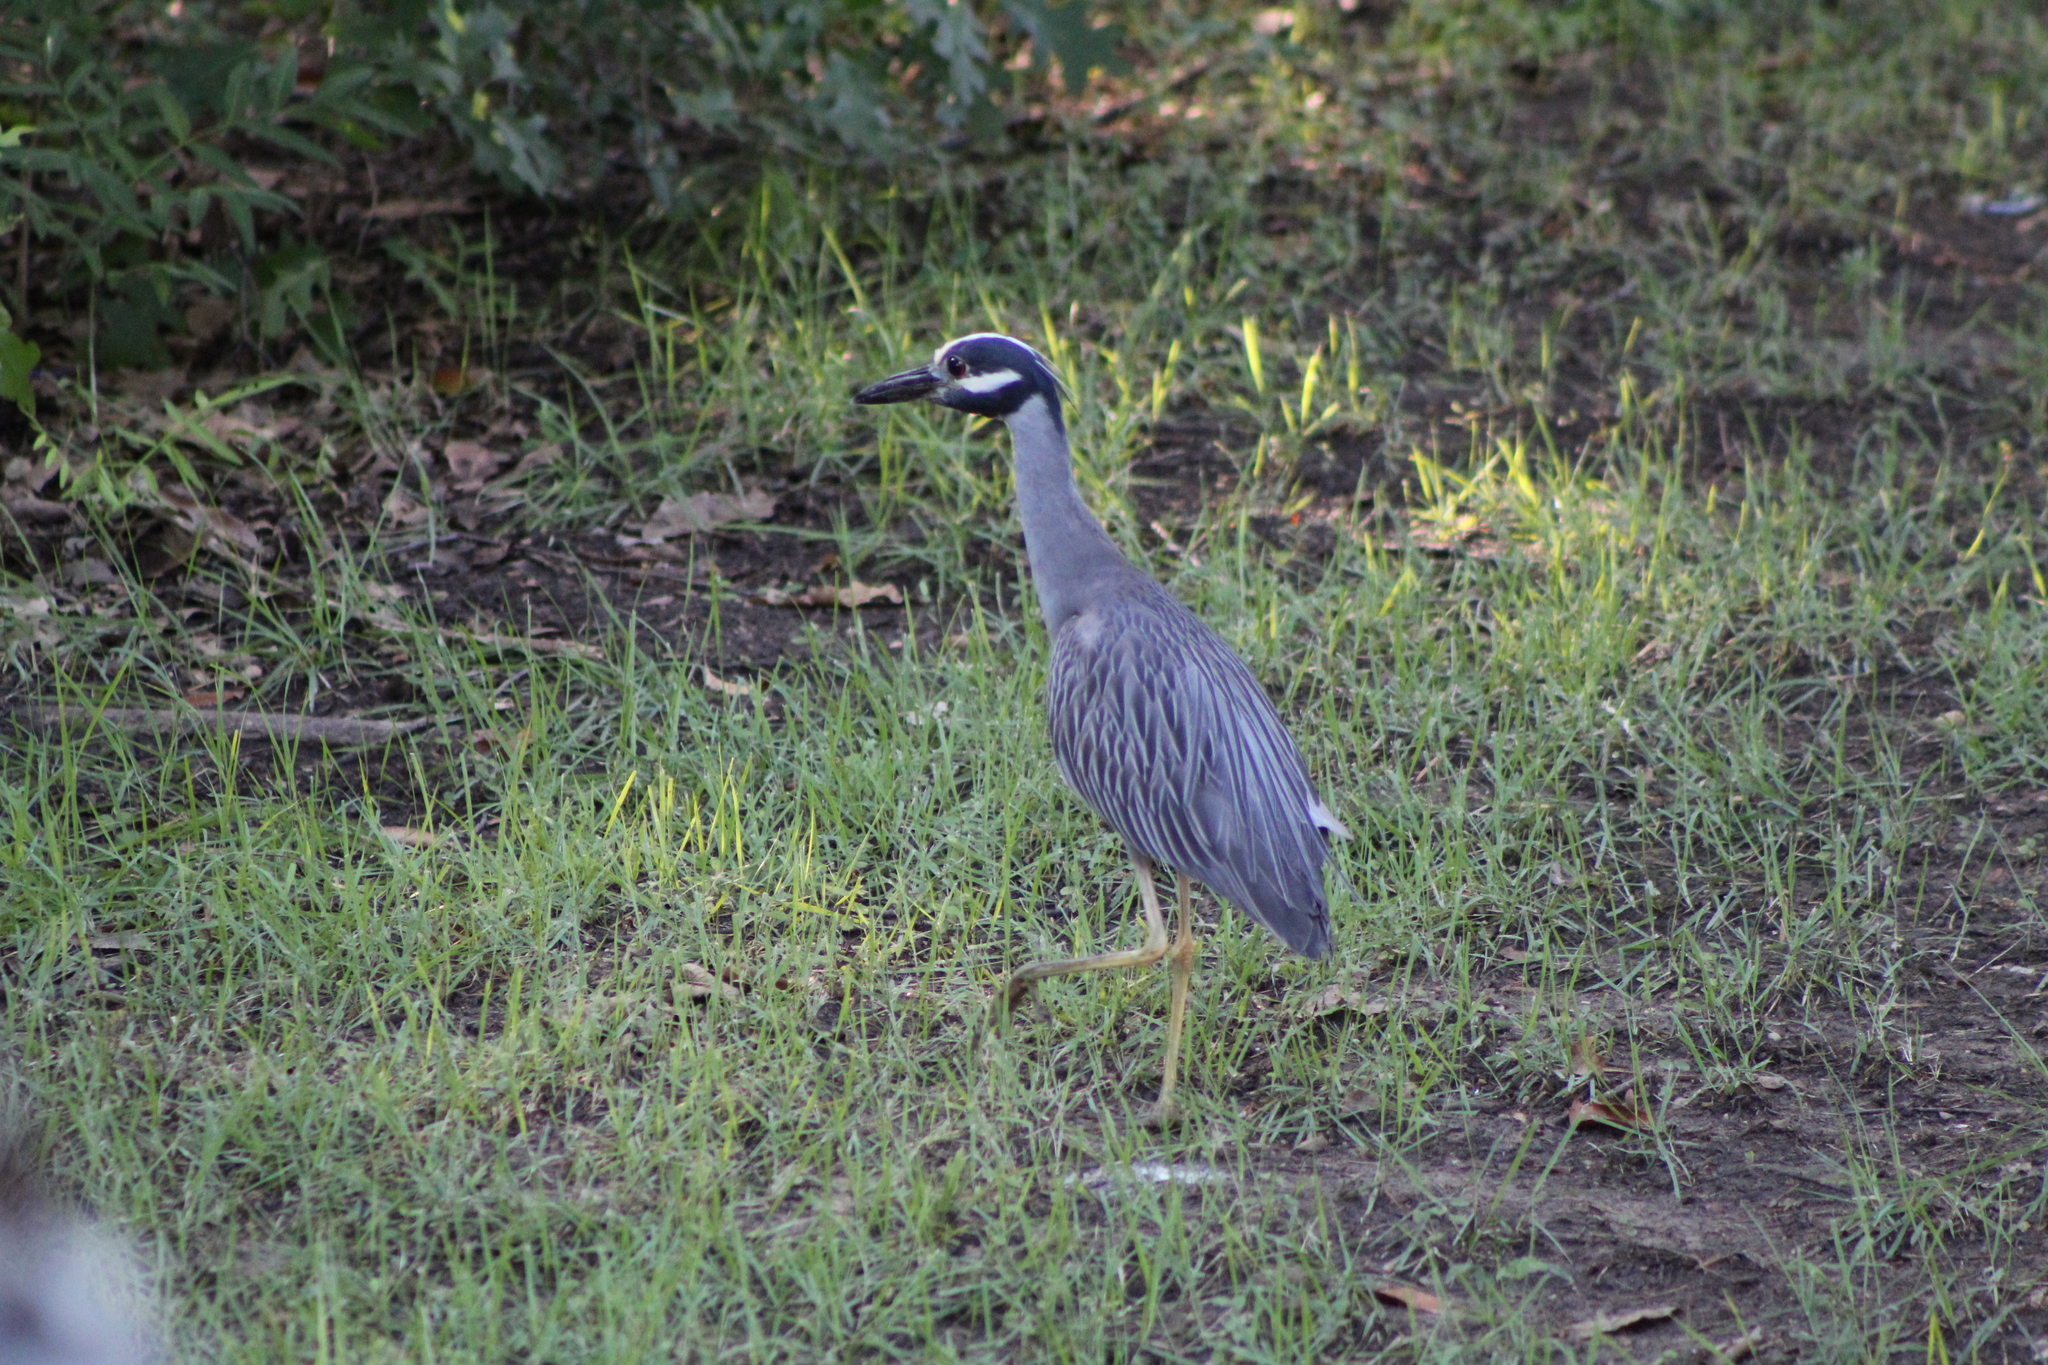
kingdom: Animalia
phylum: Chordata
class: Aves
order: Pelecaniformes
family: Ardeidae
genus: Nyctanassa
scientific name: Nyctanassa violacea
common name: Yellow-crowned night heron
